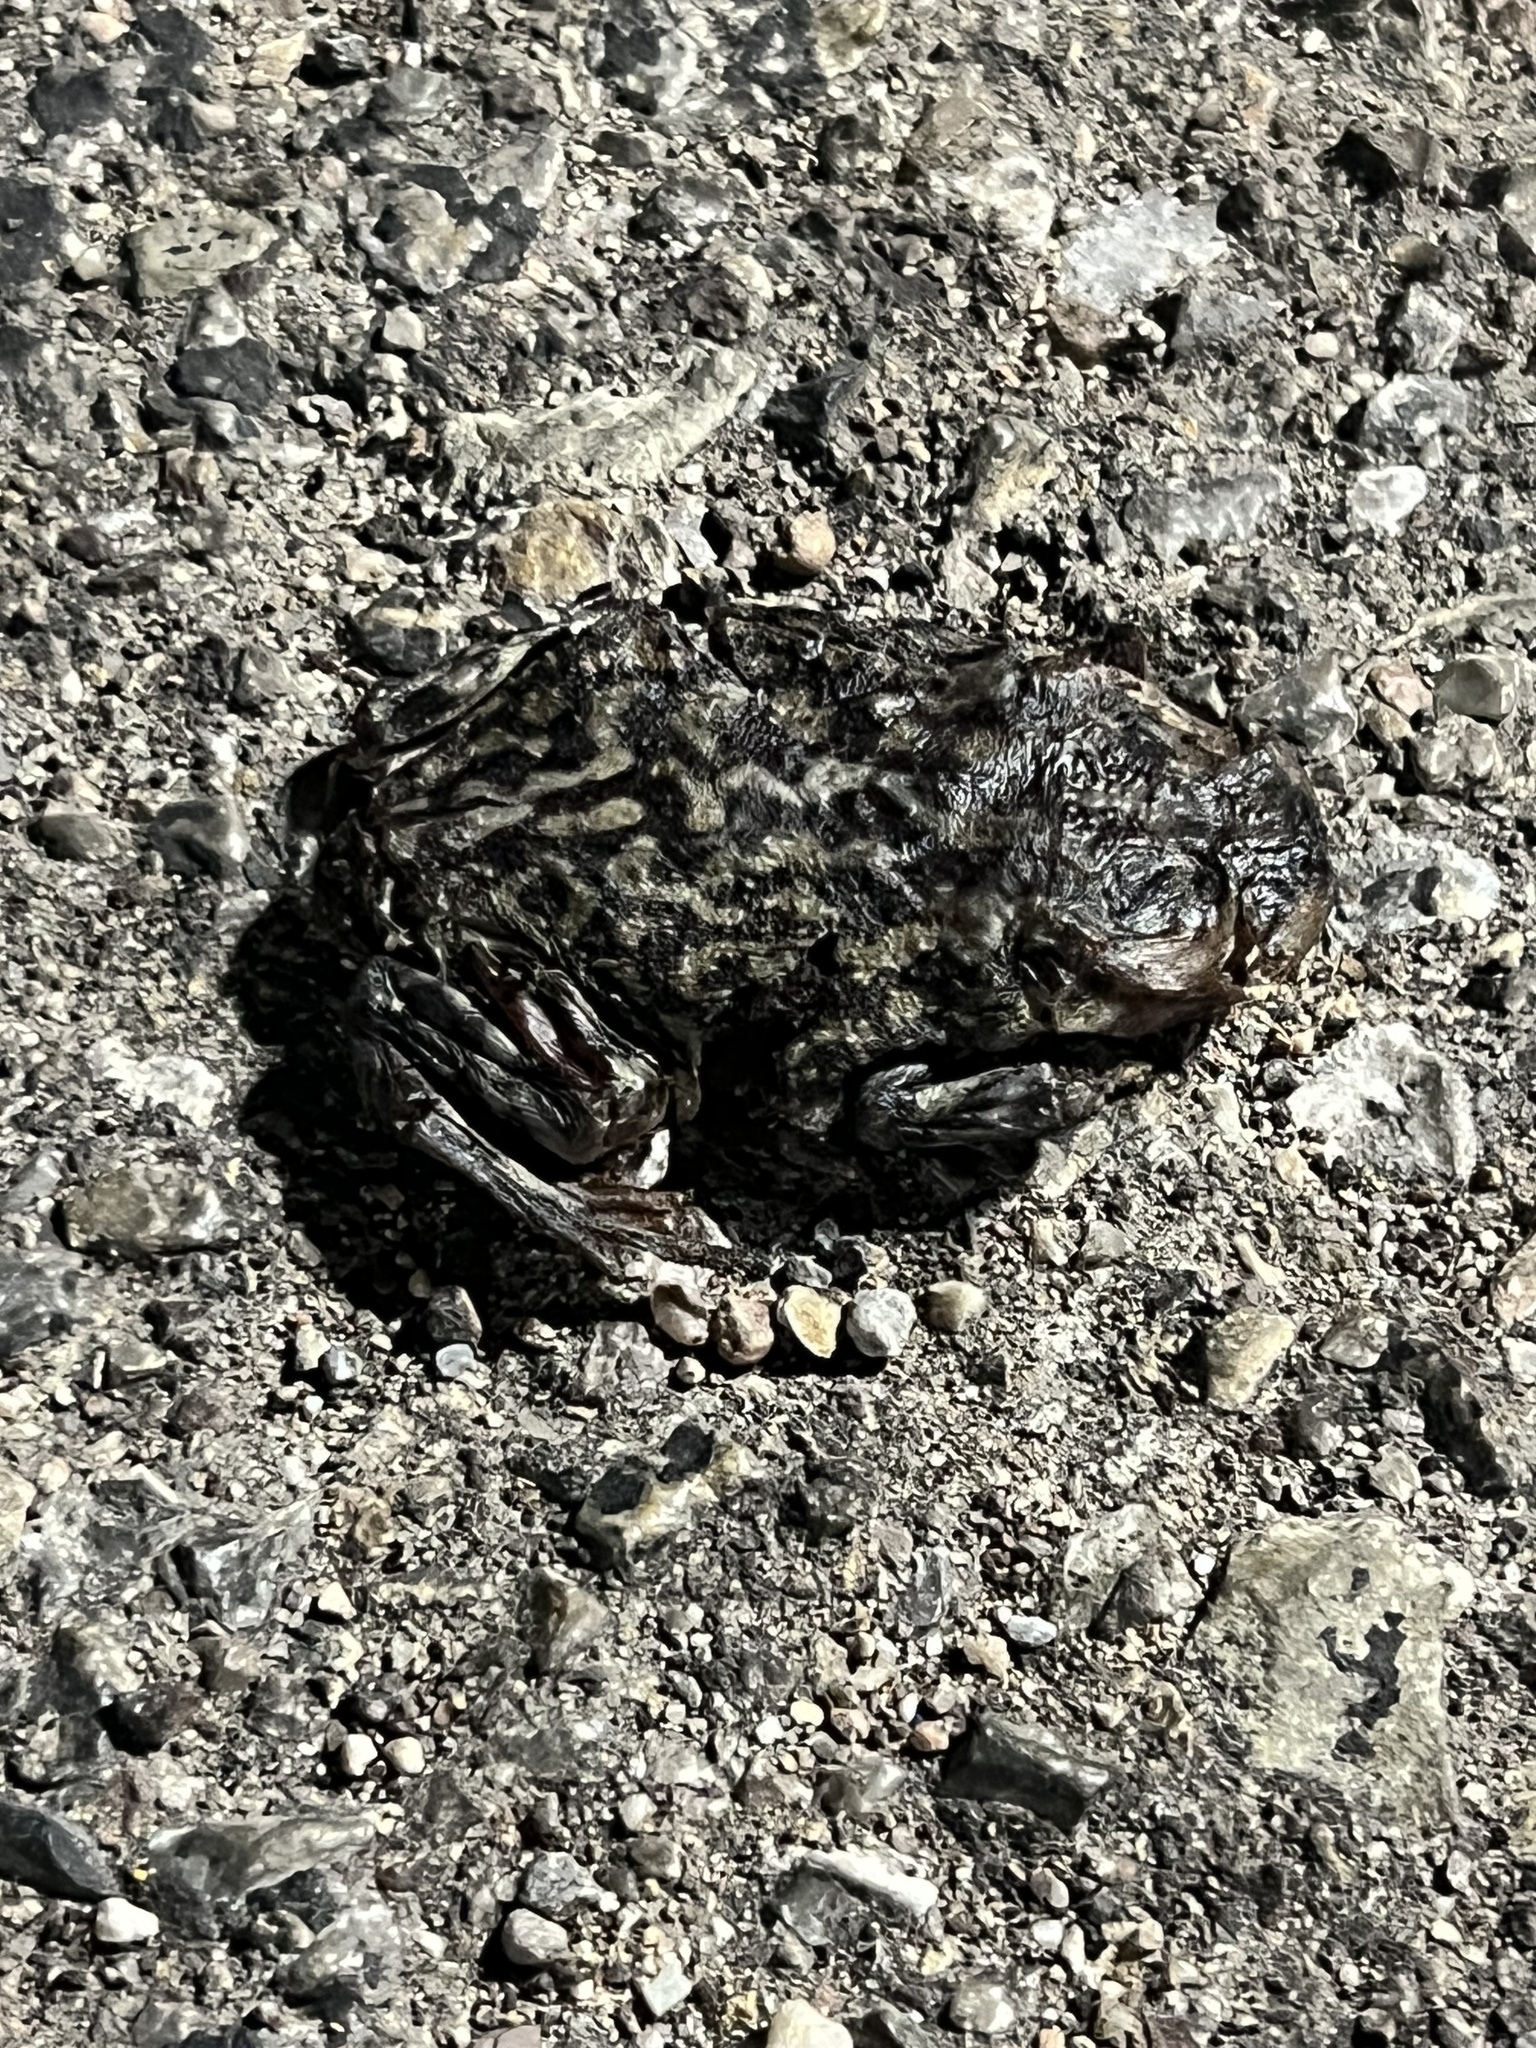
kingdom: Animalia
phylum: Chordata
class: Amphibia
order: Anura
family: Scaphiopodidae
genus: Scaphiopus
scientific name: Scaphiopus couchii
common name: Couch's spadefoot toad
